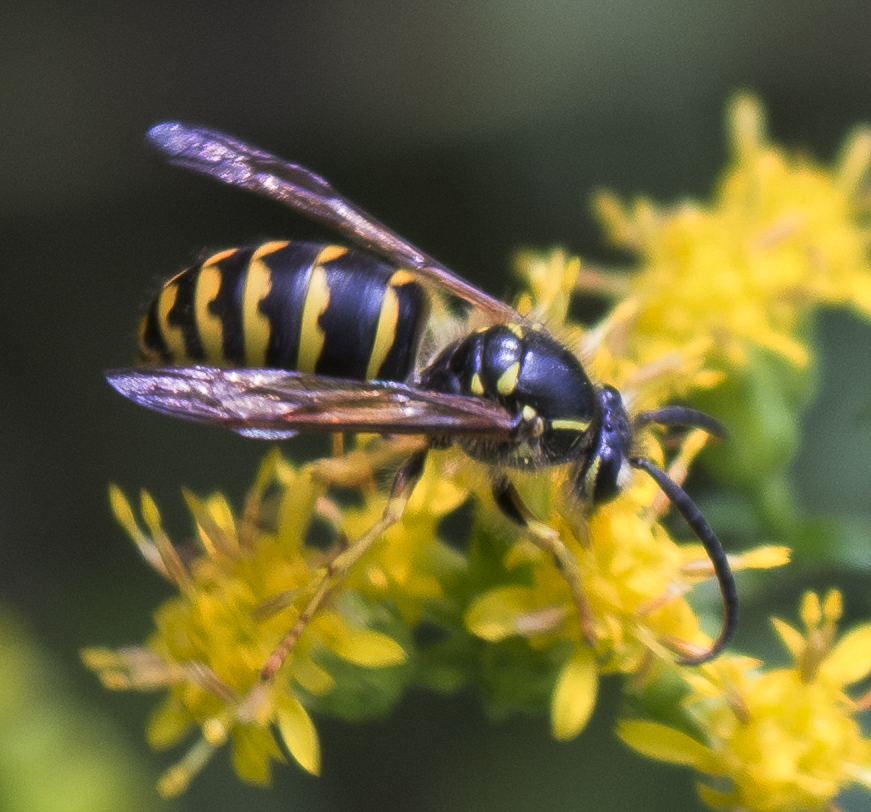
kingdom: Animalia
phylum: Arthropoda
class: Insecta
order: Hymenoptera
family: Vespidae
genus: Dolichovespula
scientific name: Dolichovespula arenaria
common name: Aerial yellowjacket
